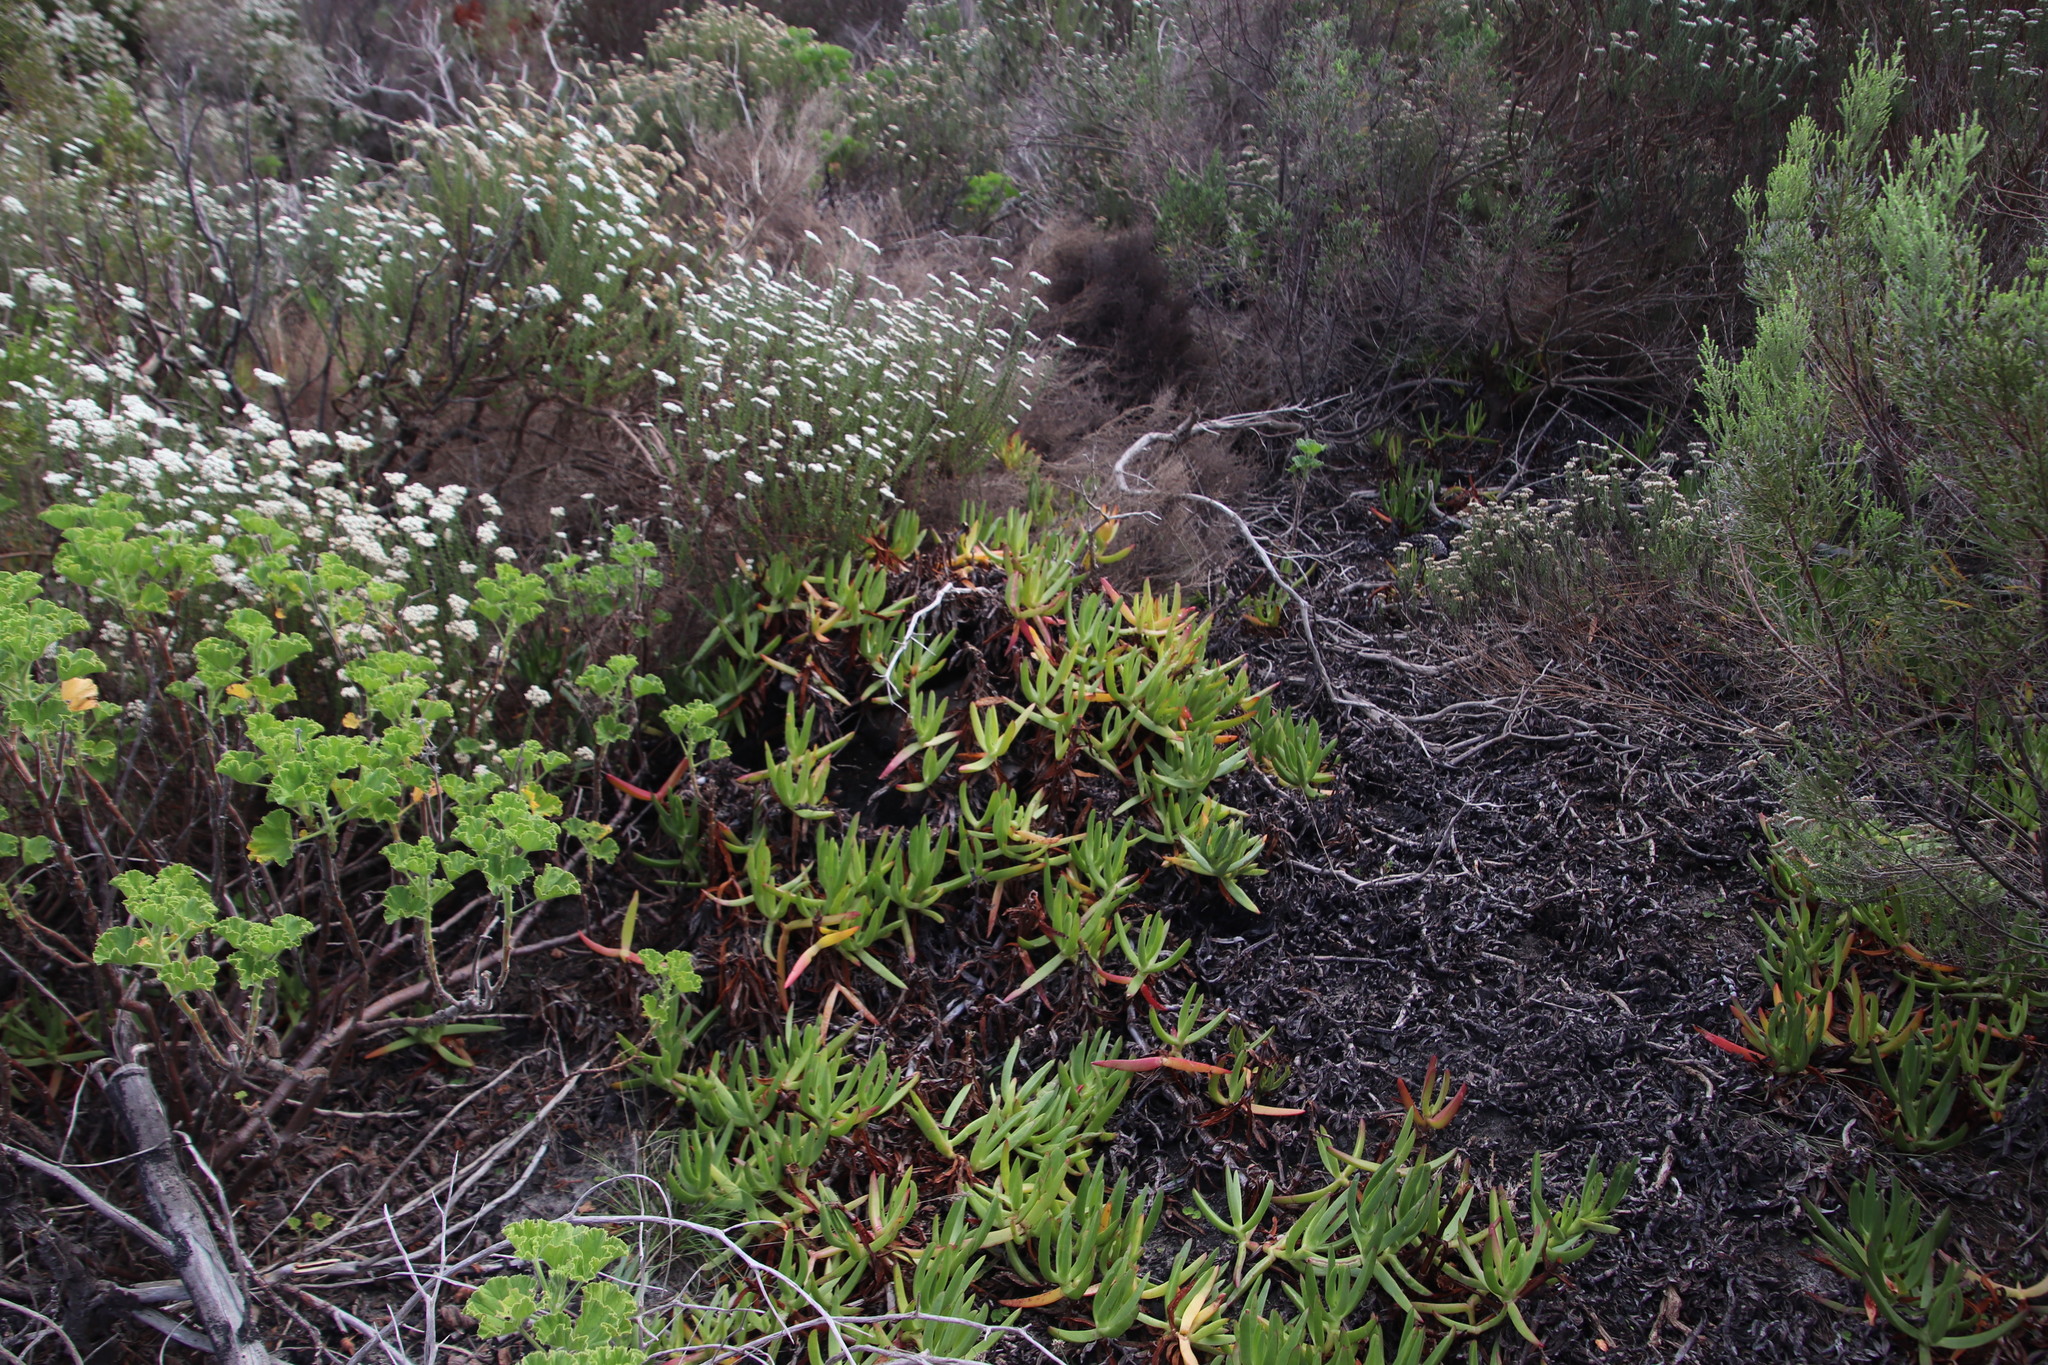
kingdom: Plantae
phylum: Tracheophyta
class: Magnoliopsida
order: Caryophyllales
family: Aizoaceae
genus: Carpobrotus
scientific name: Carpobrotus edulis
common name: Hottentot-fig
